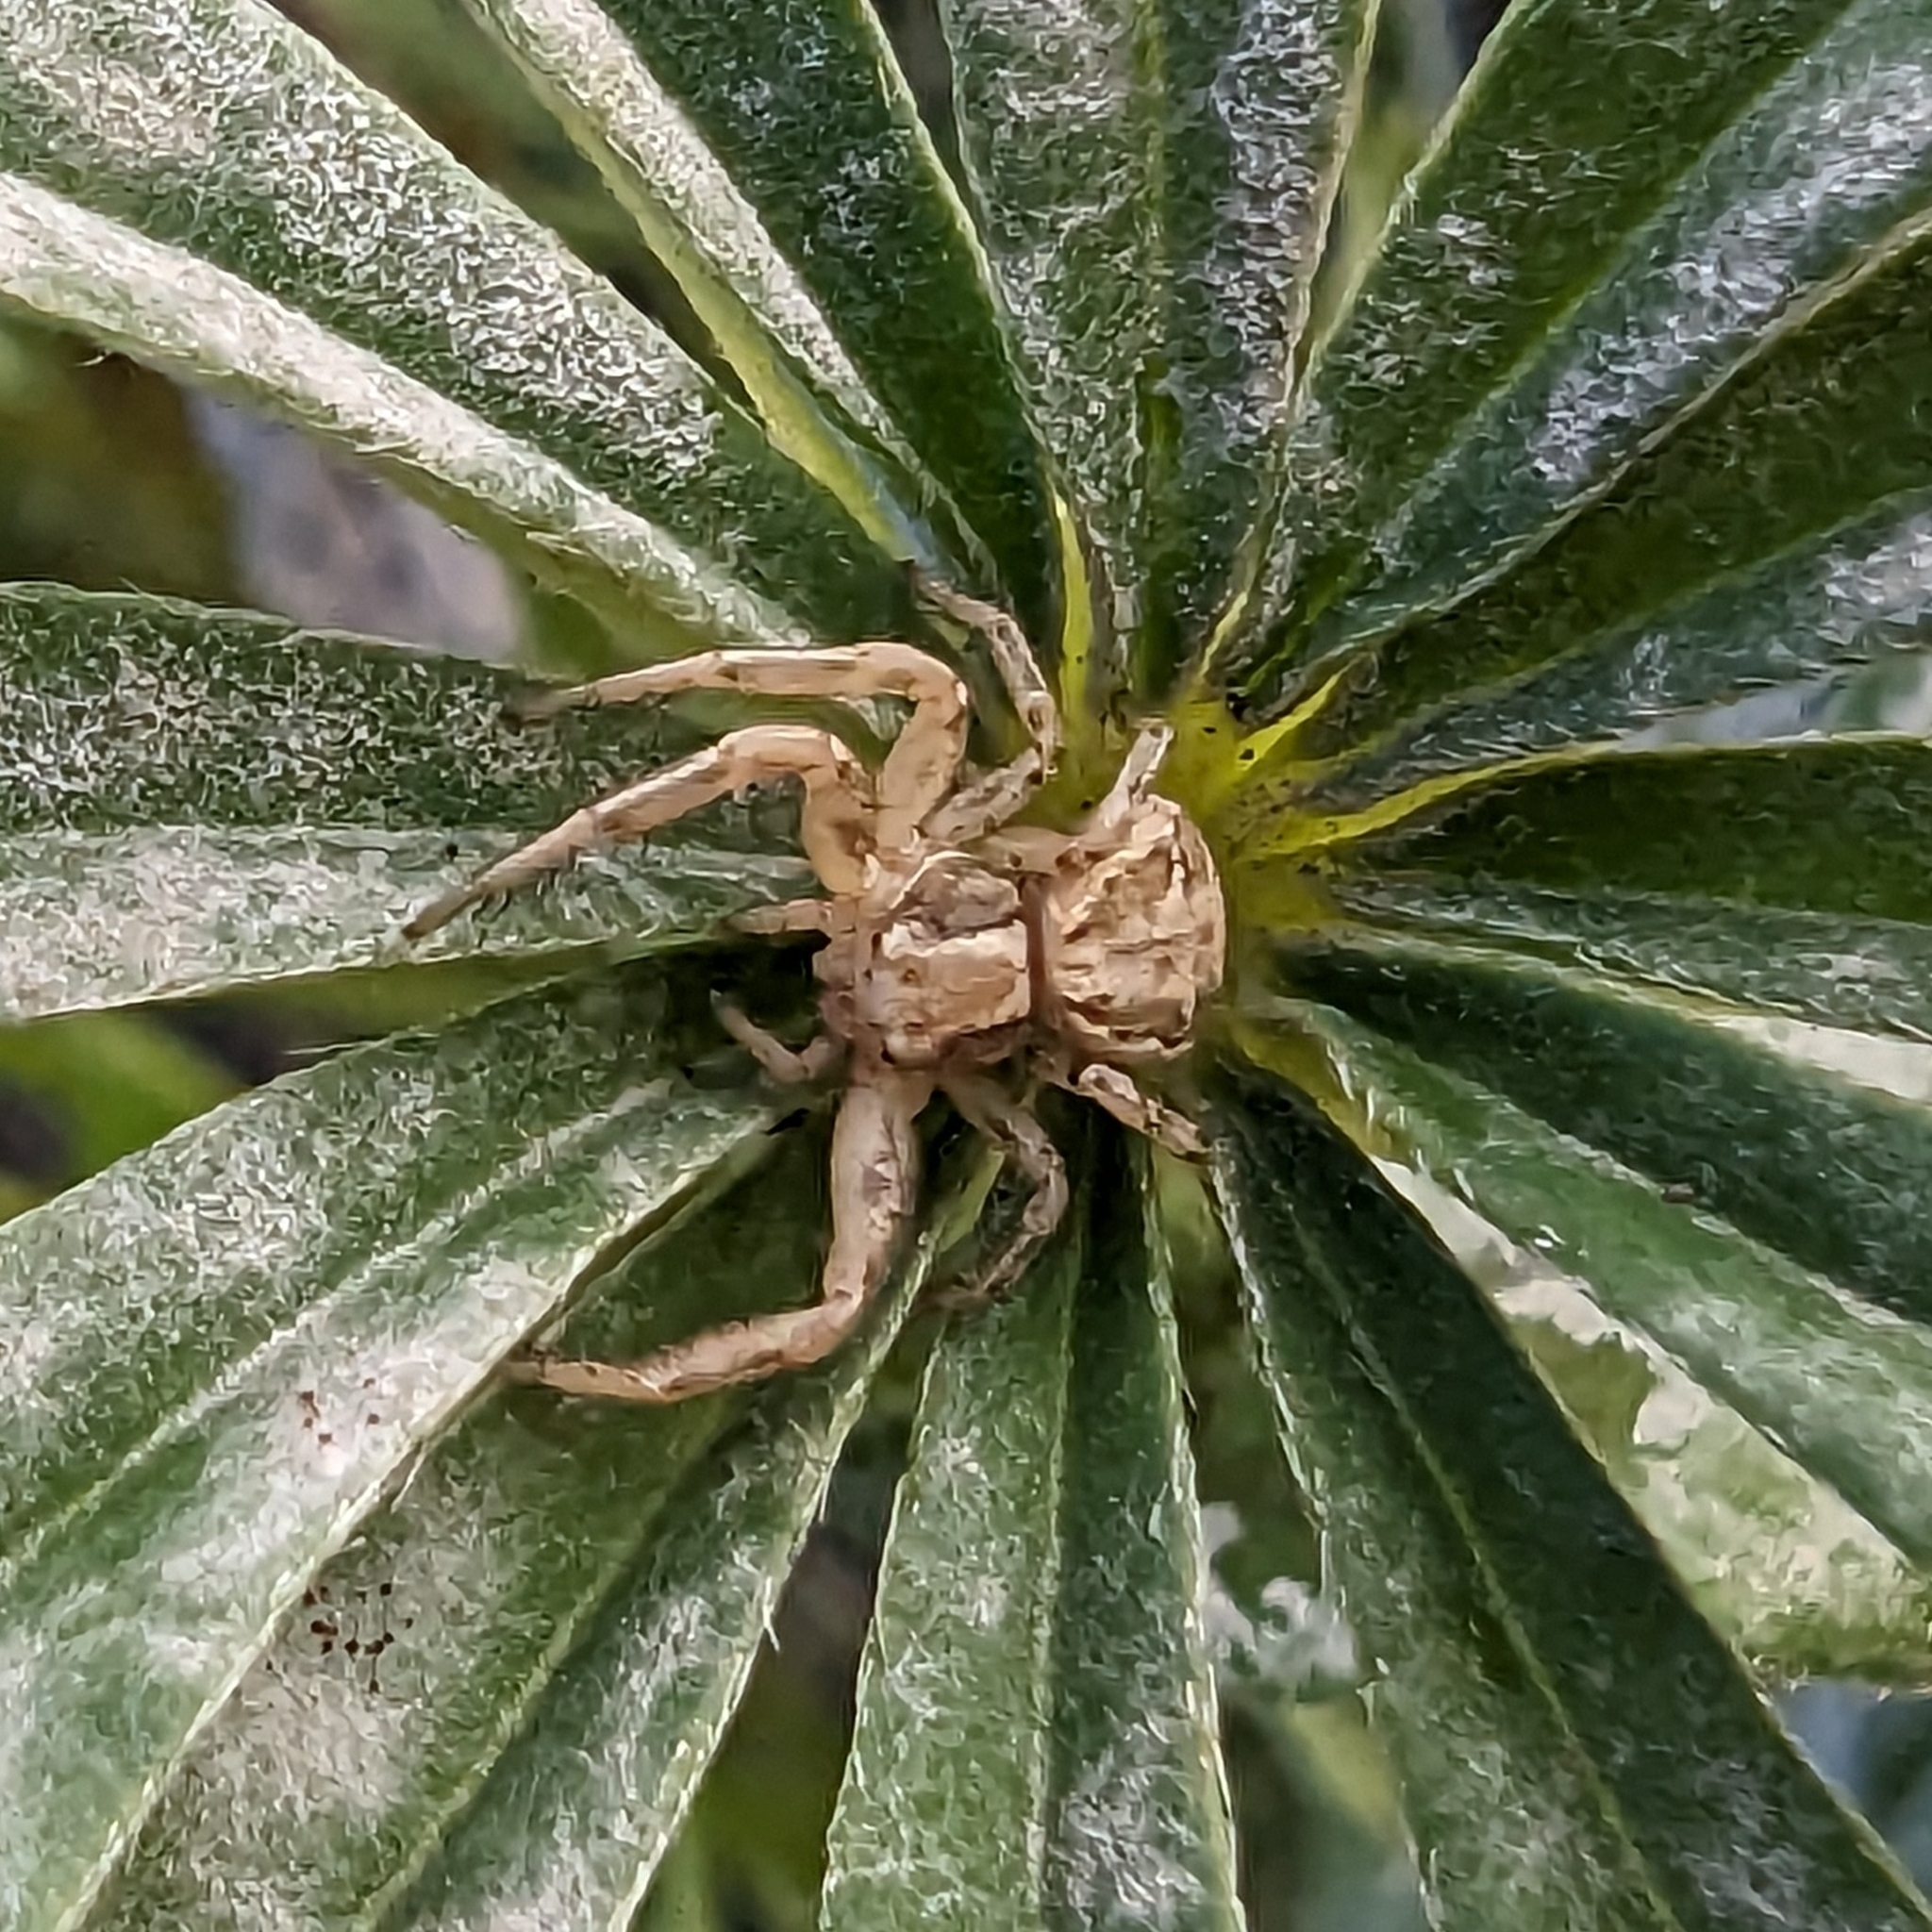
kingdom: Animalia
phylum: Arthropoda
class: Arachnida
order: Araneae
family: Thomisidae
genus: Xysticus
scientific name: Xysticus cristatus
